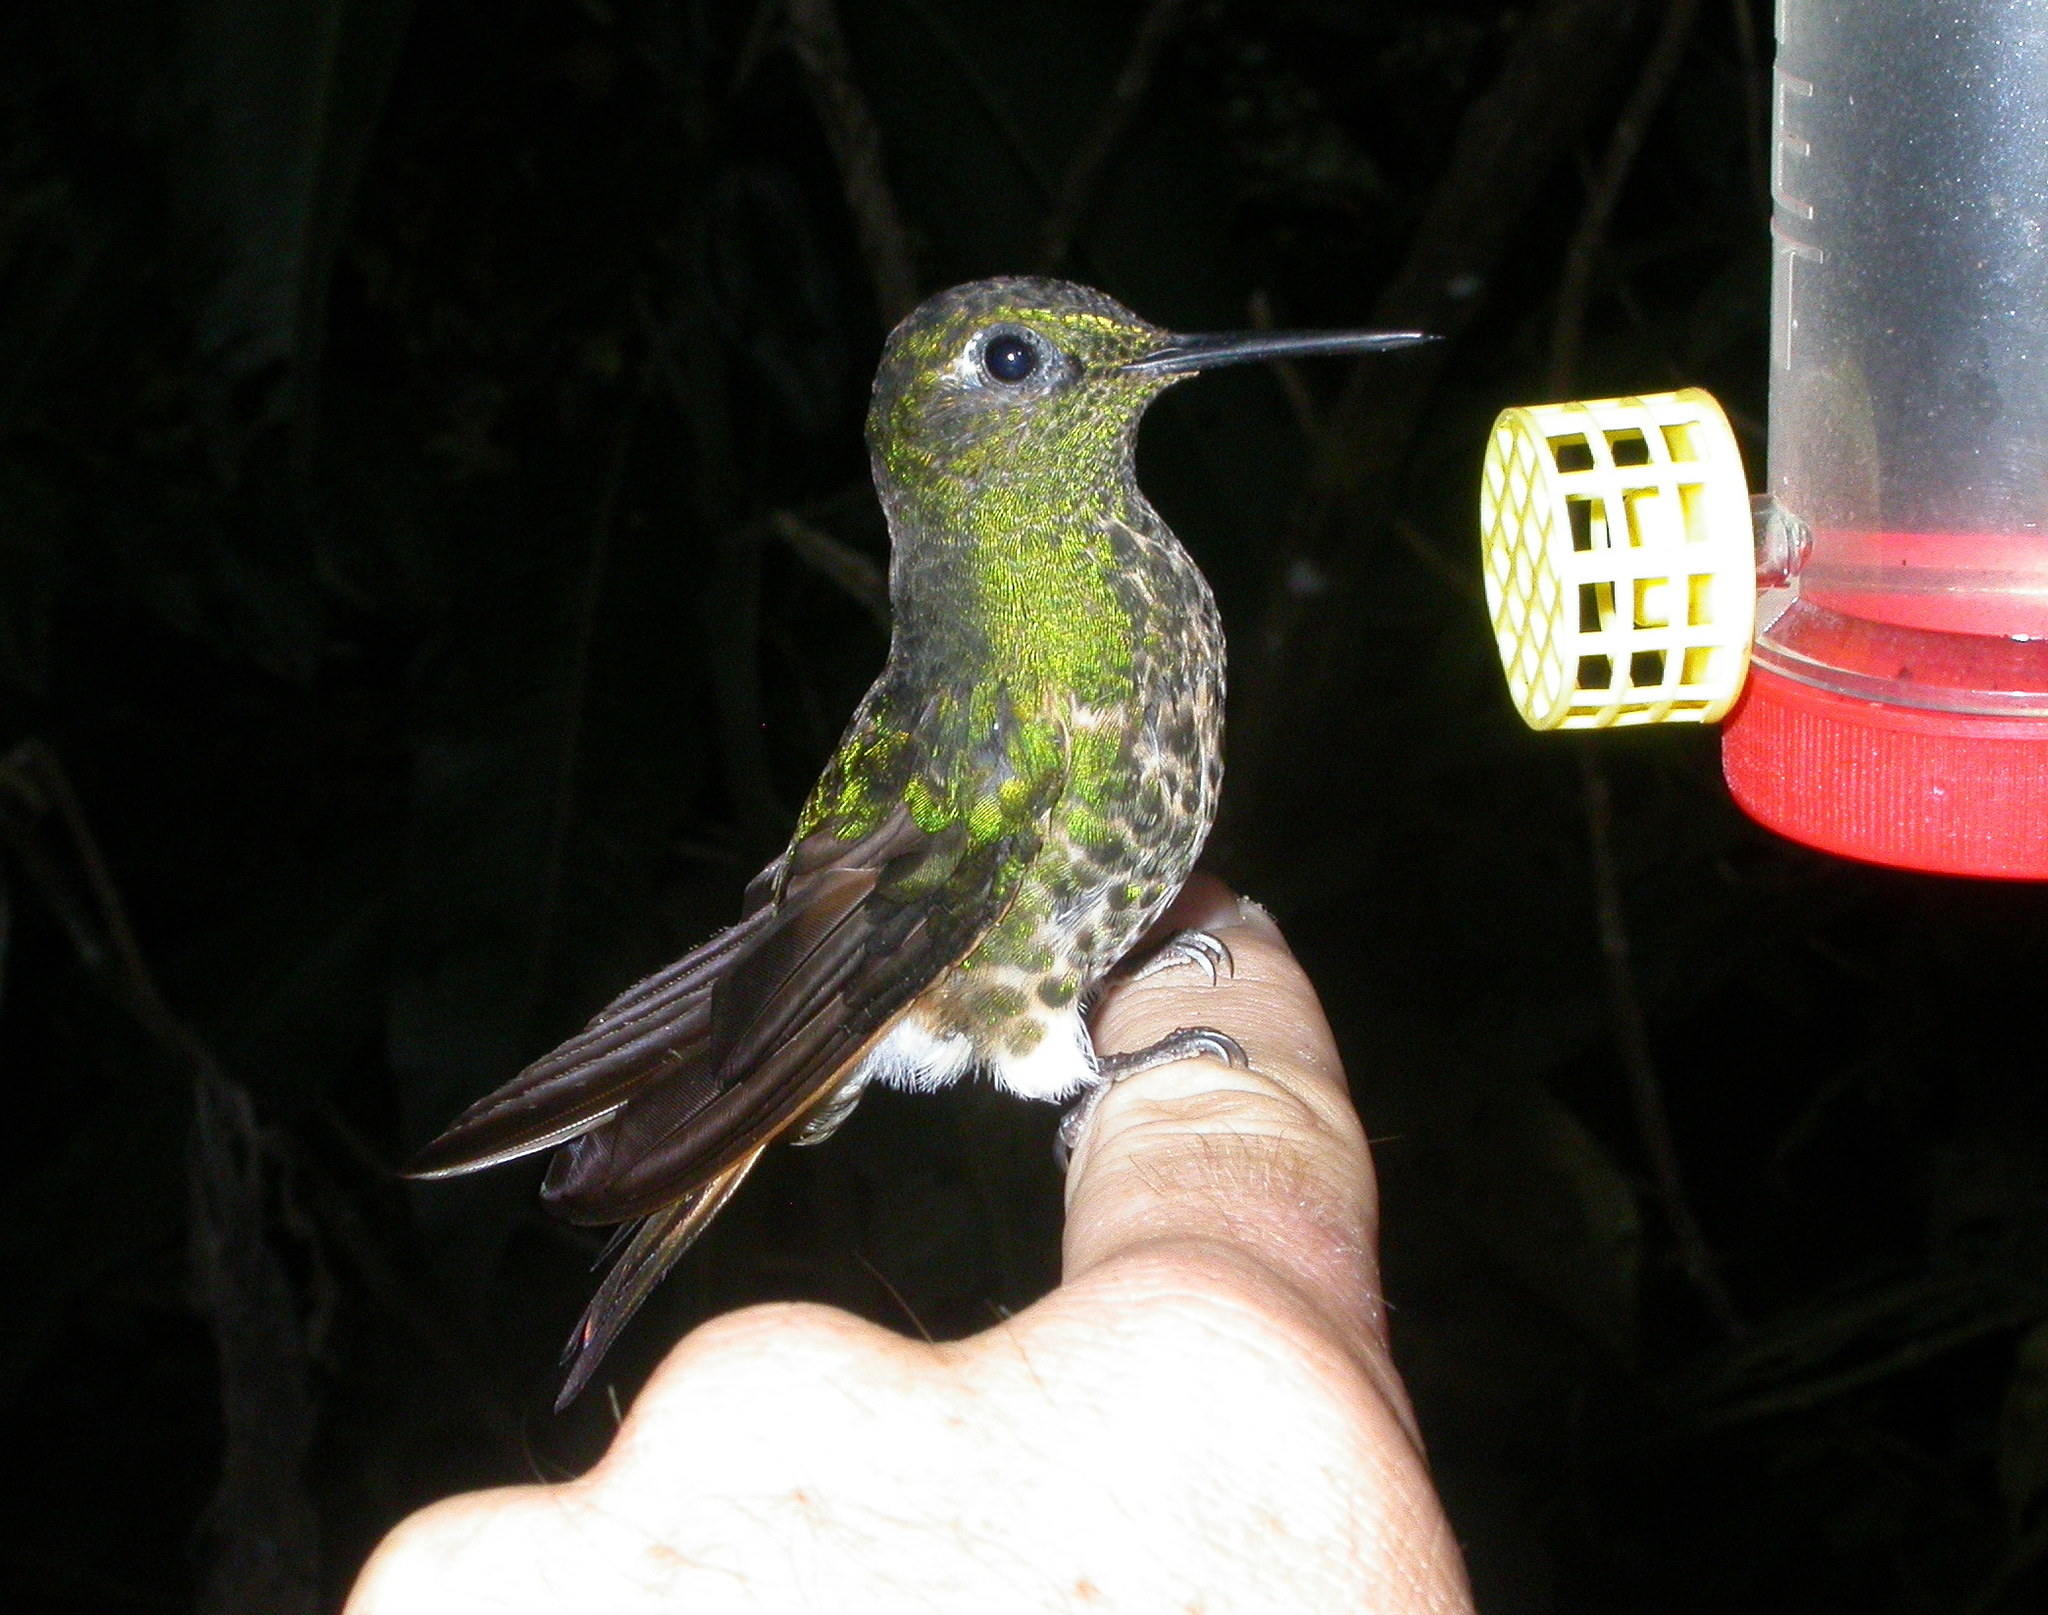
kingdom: Animalia
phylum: Chordata
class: Aves
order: Apodiformes
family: Trochilidae
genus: Boissonneaua
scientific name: Boissonneaua flavescens
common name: Buff-tailed coronet
